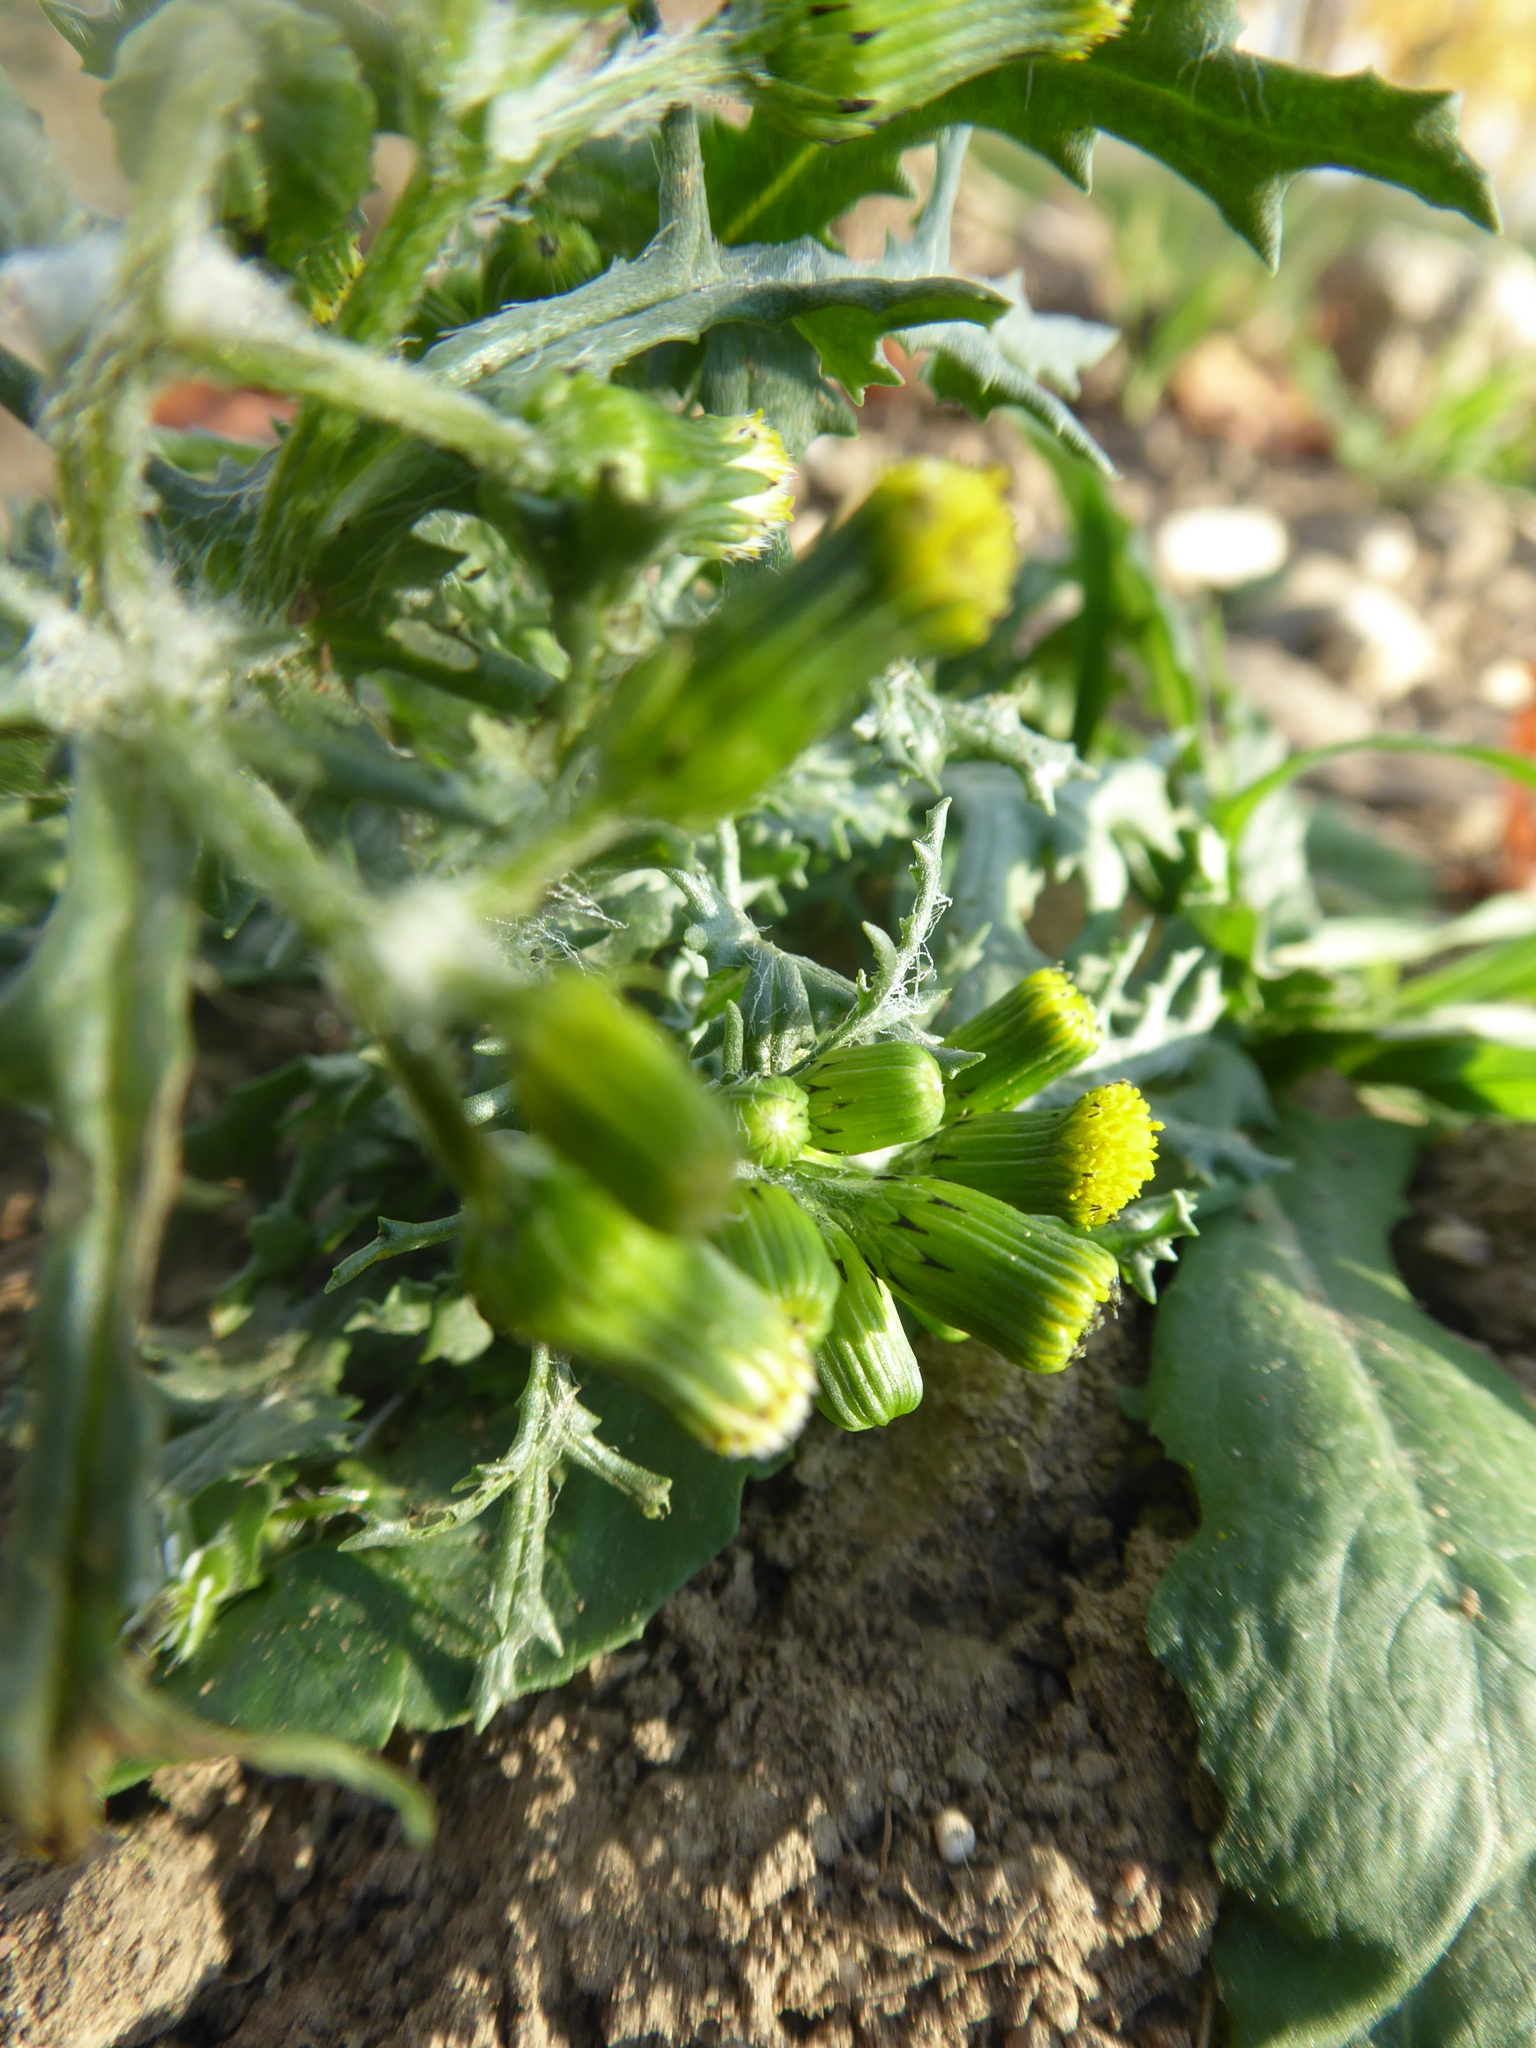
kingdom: Plantae
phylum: Tracheophyta
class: Magnoliopsida
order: Asterales
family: Asteraceae
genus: Senecio
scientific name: Senecio vulgaris
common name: Old-man-in-the-spring
